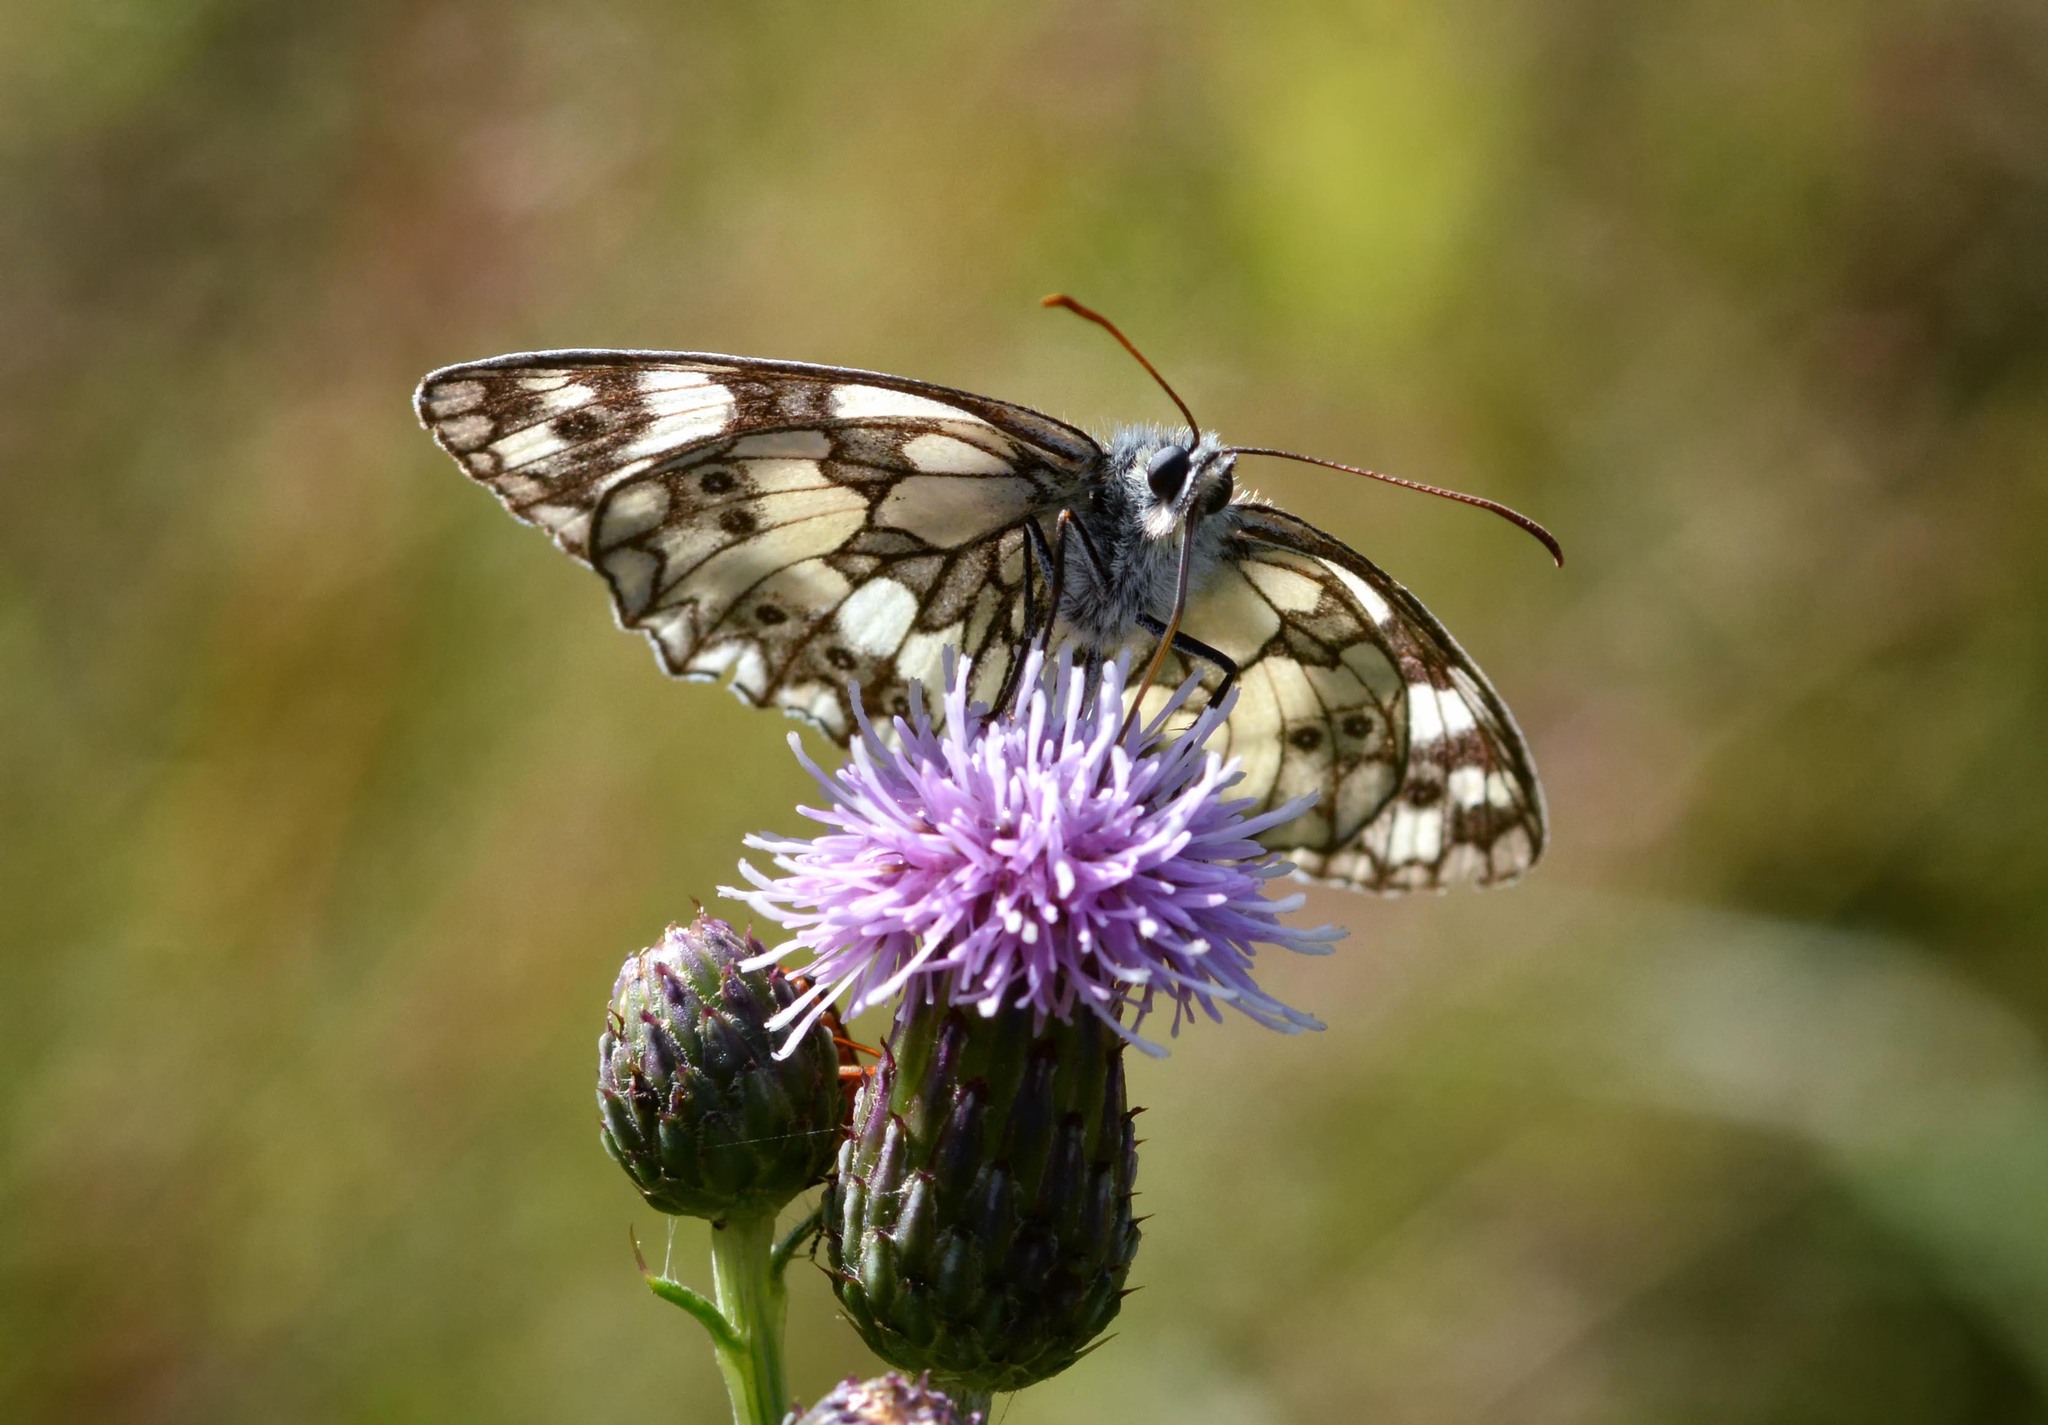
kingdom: Animalia
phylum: Arthropoda
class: Insecta
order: Lepidoptera
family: Nymphalidae
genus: Melanargia
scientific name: Melanargia galathea
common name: Marbled white
